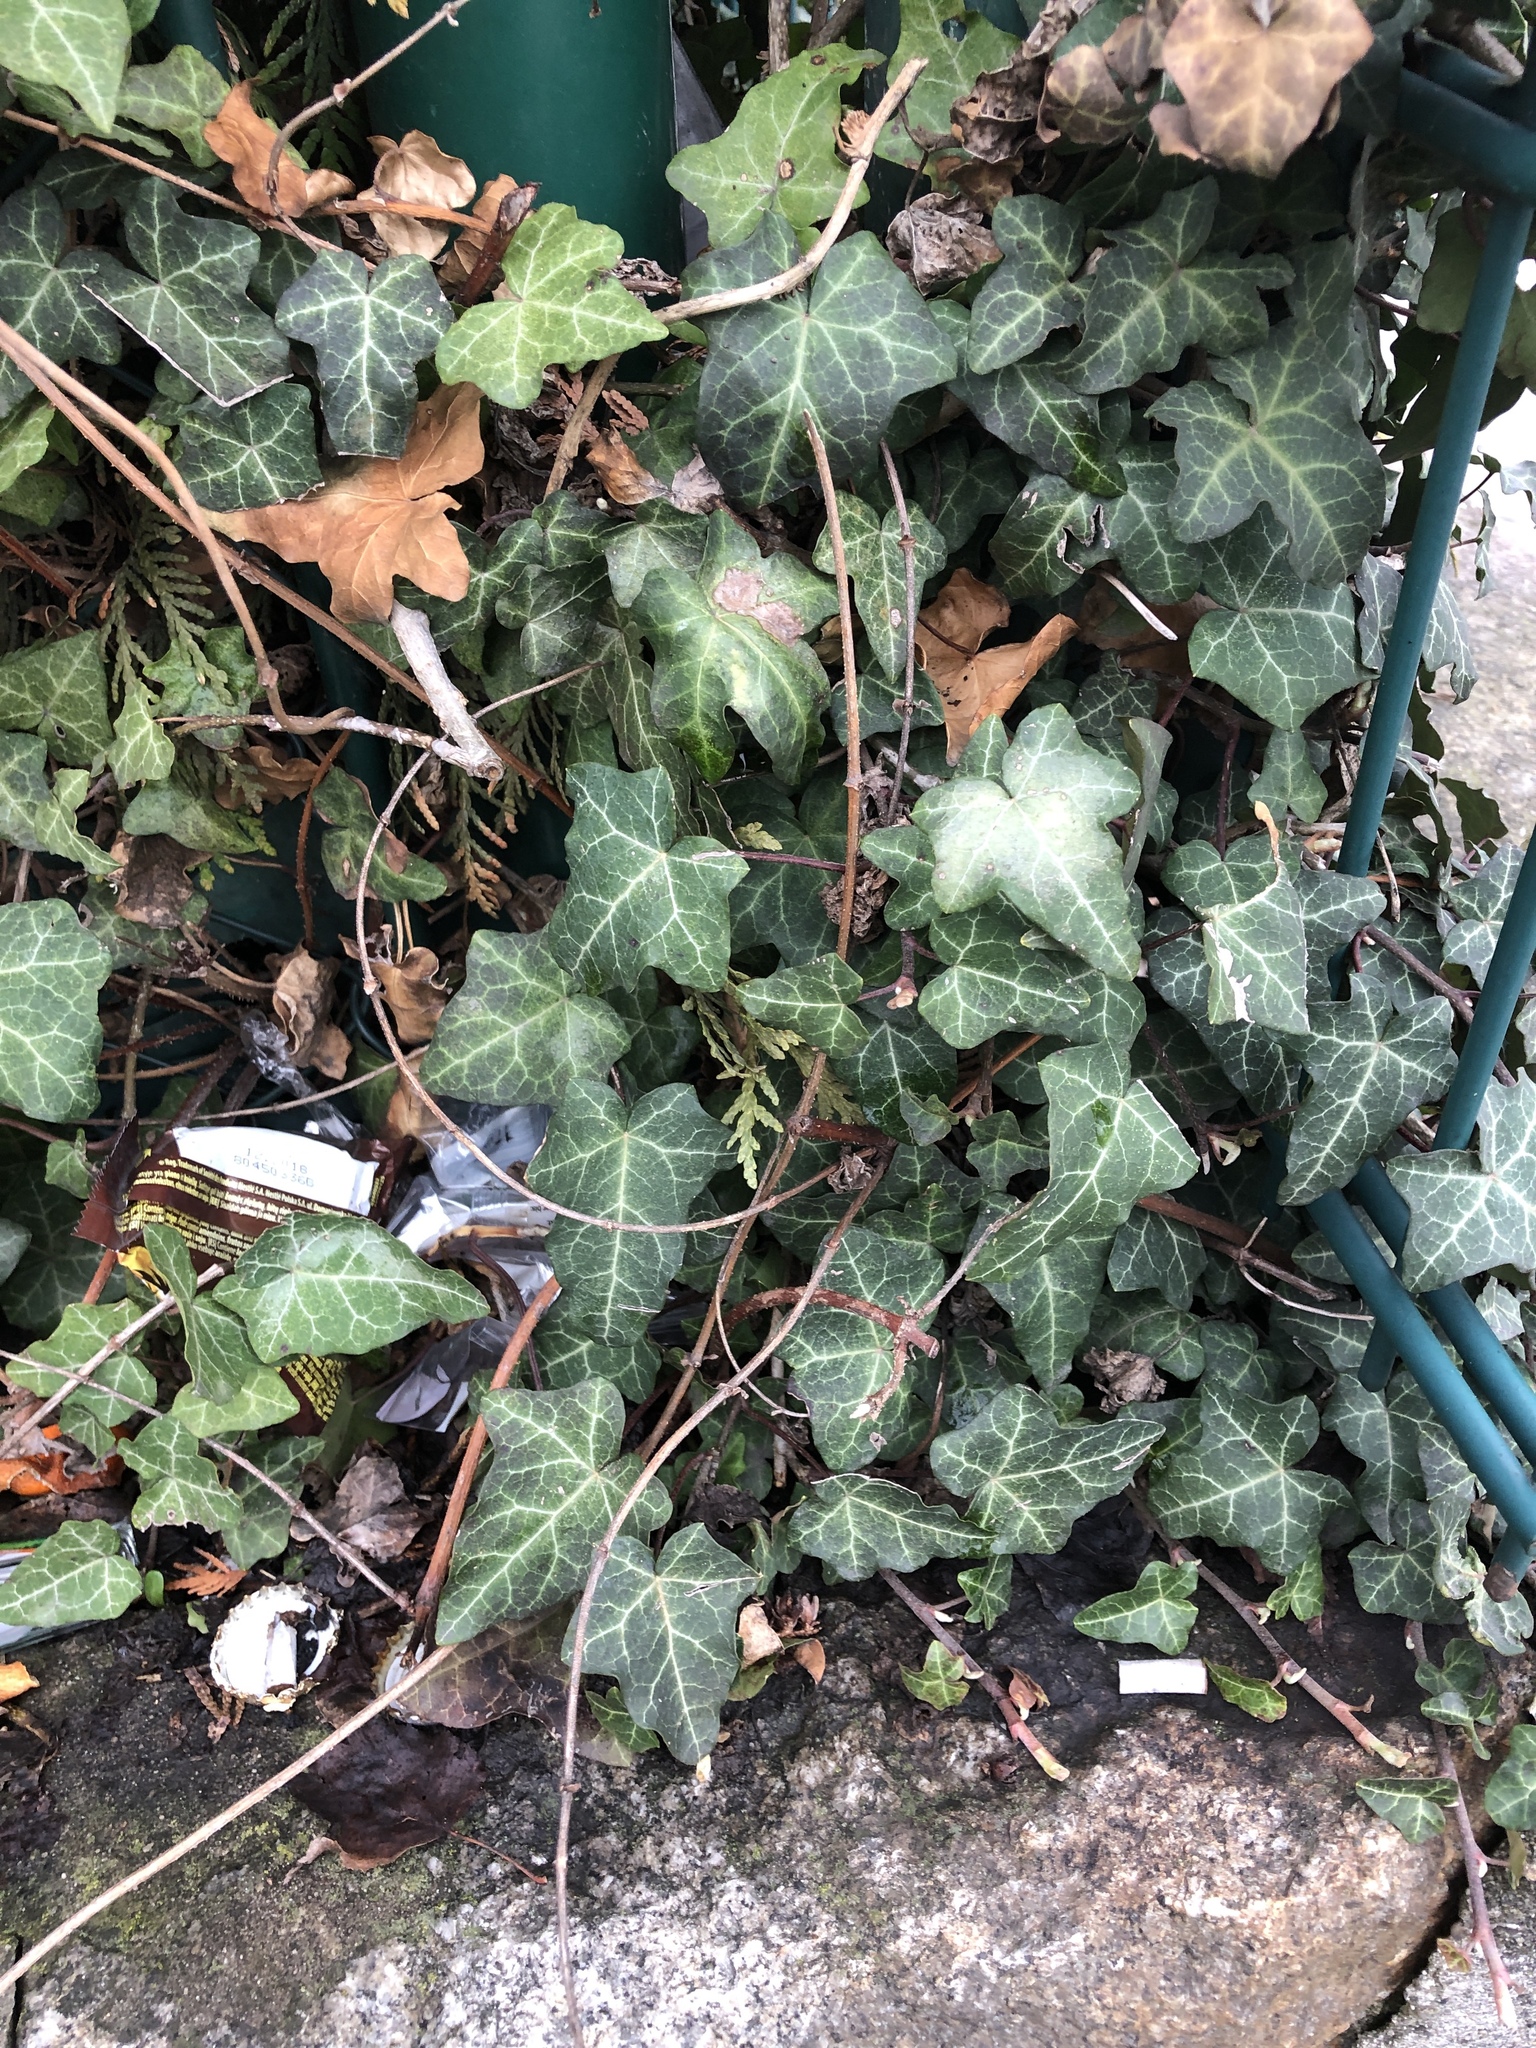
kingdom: Plantae
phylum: Tracheophyta
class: Magnoliopsida
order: Apiales
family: Araliaceae
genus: Hedera
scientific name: Hedera helix
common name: Ivy
